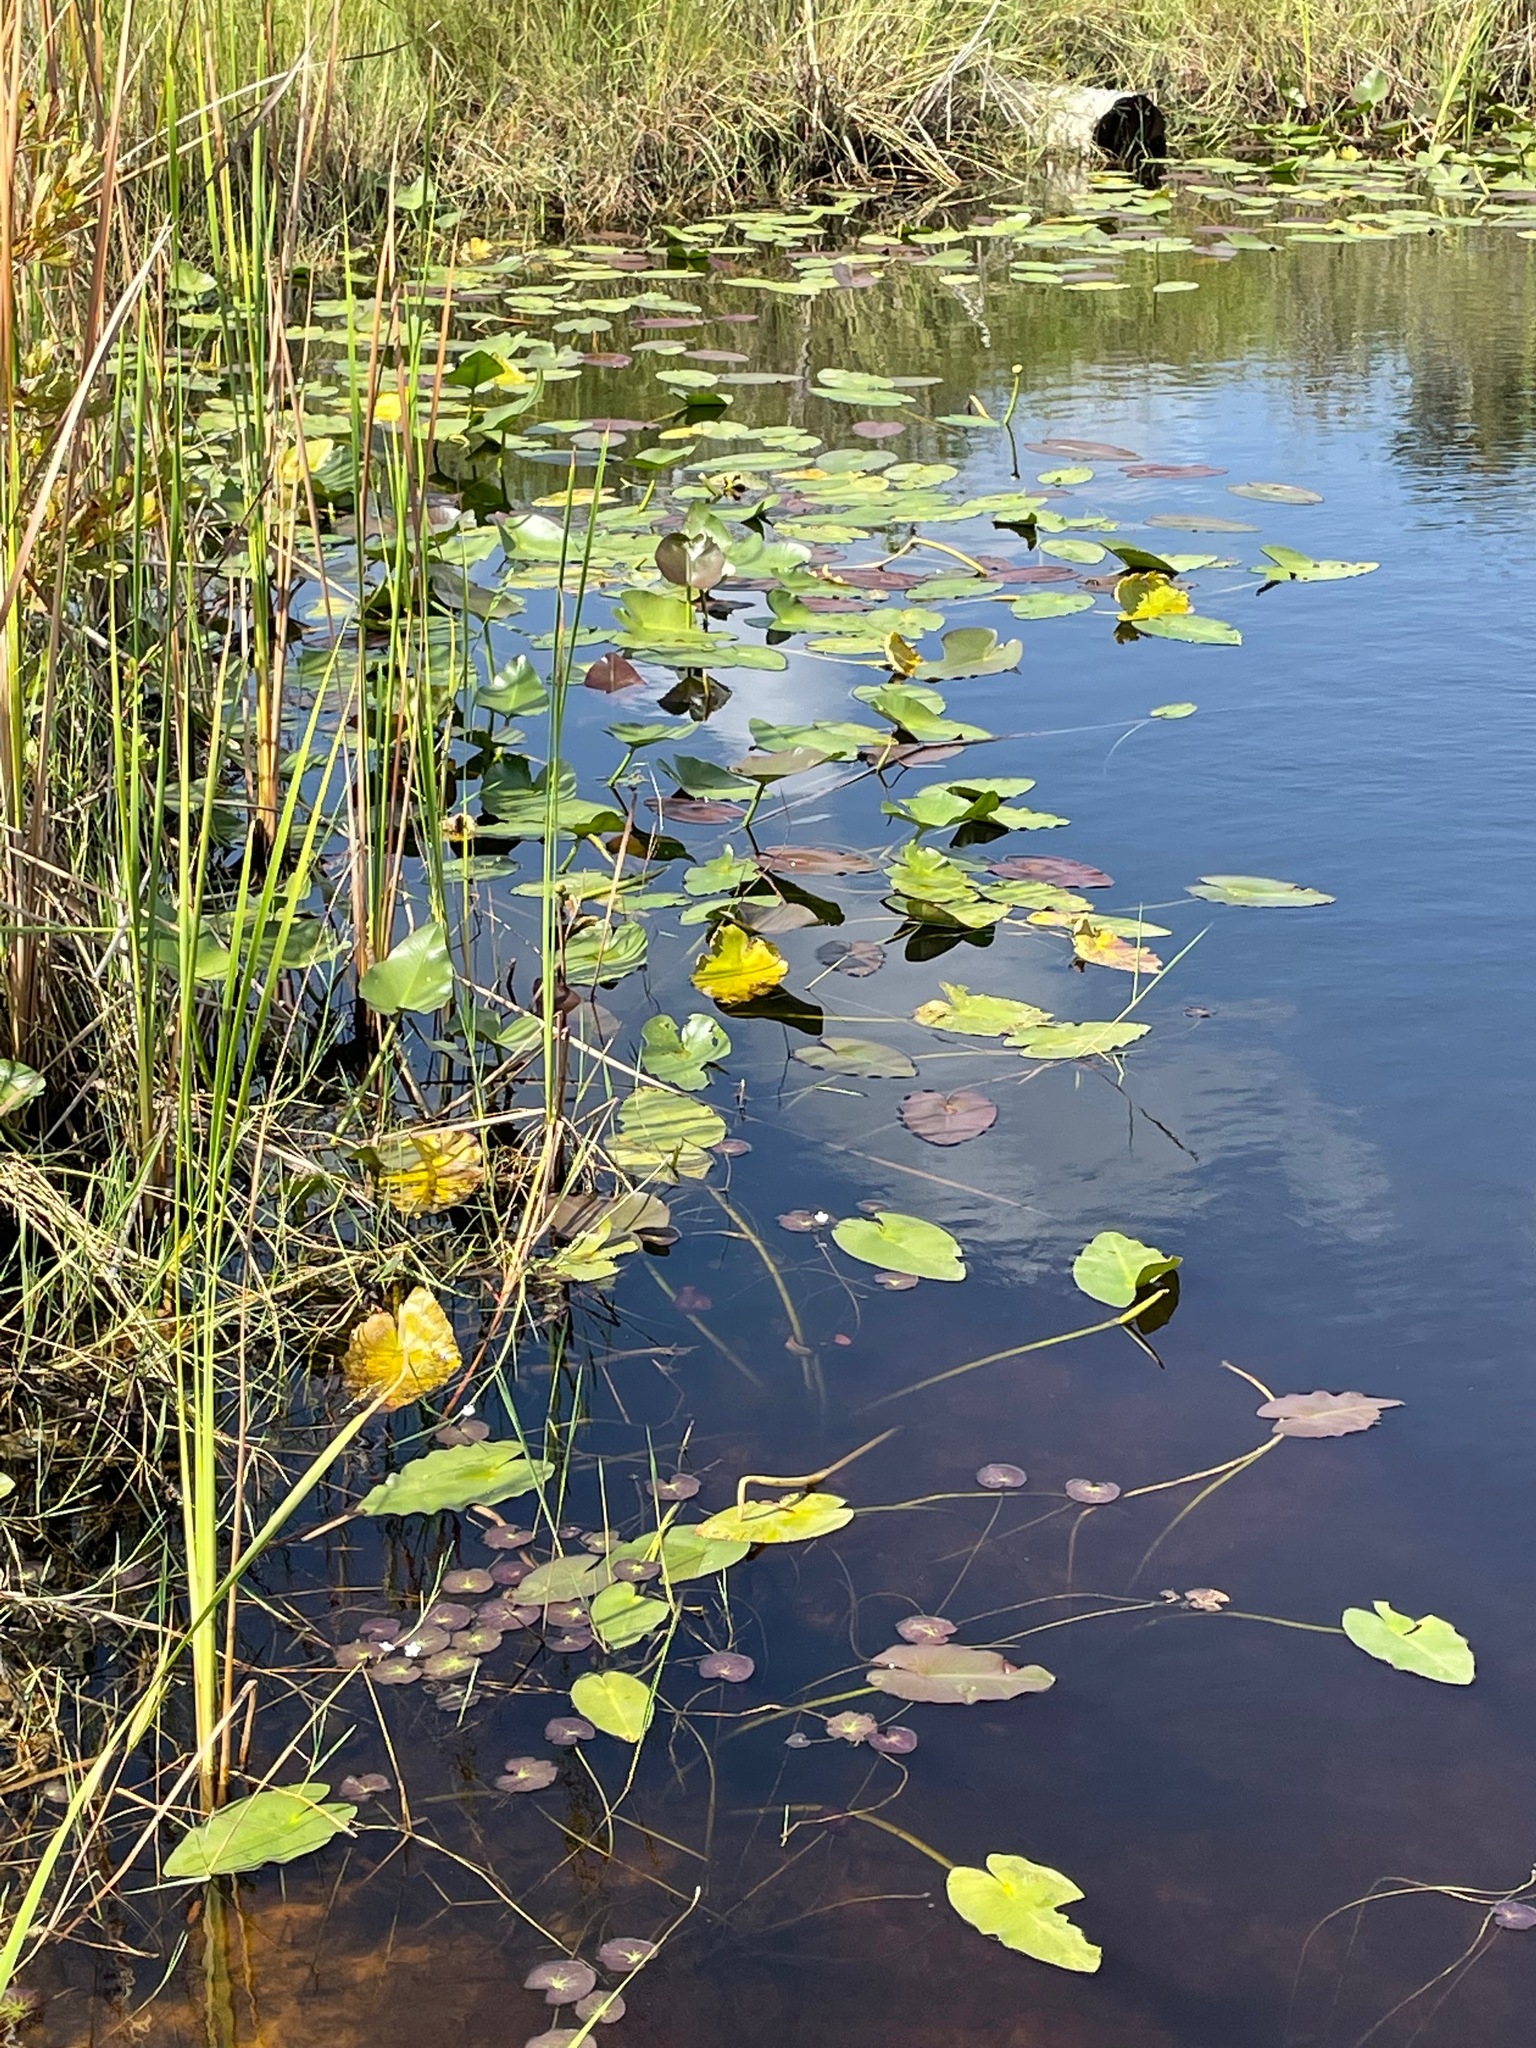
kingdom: Plantae
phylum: Tracheophyta
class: Magnoliopsida
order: Nymphaeales
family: Nymphaeaceae
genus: Nuphar
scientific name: Nuphar advena
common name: Spatter-dock
